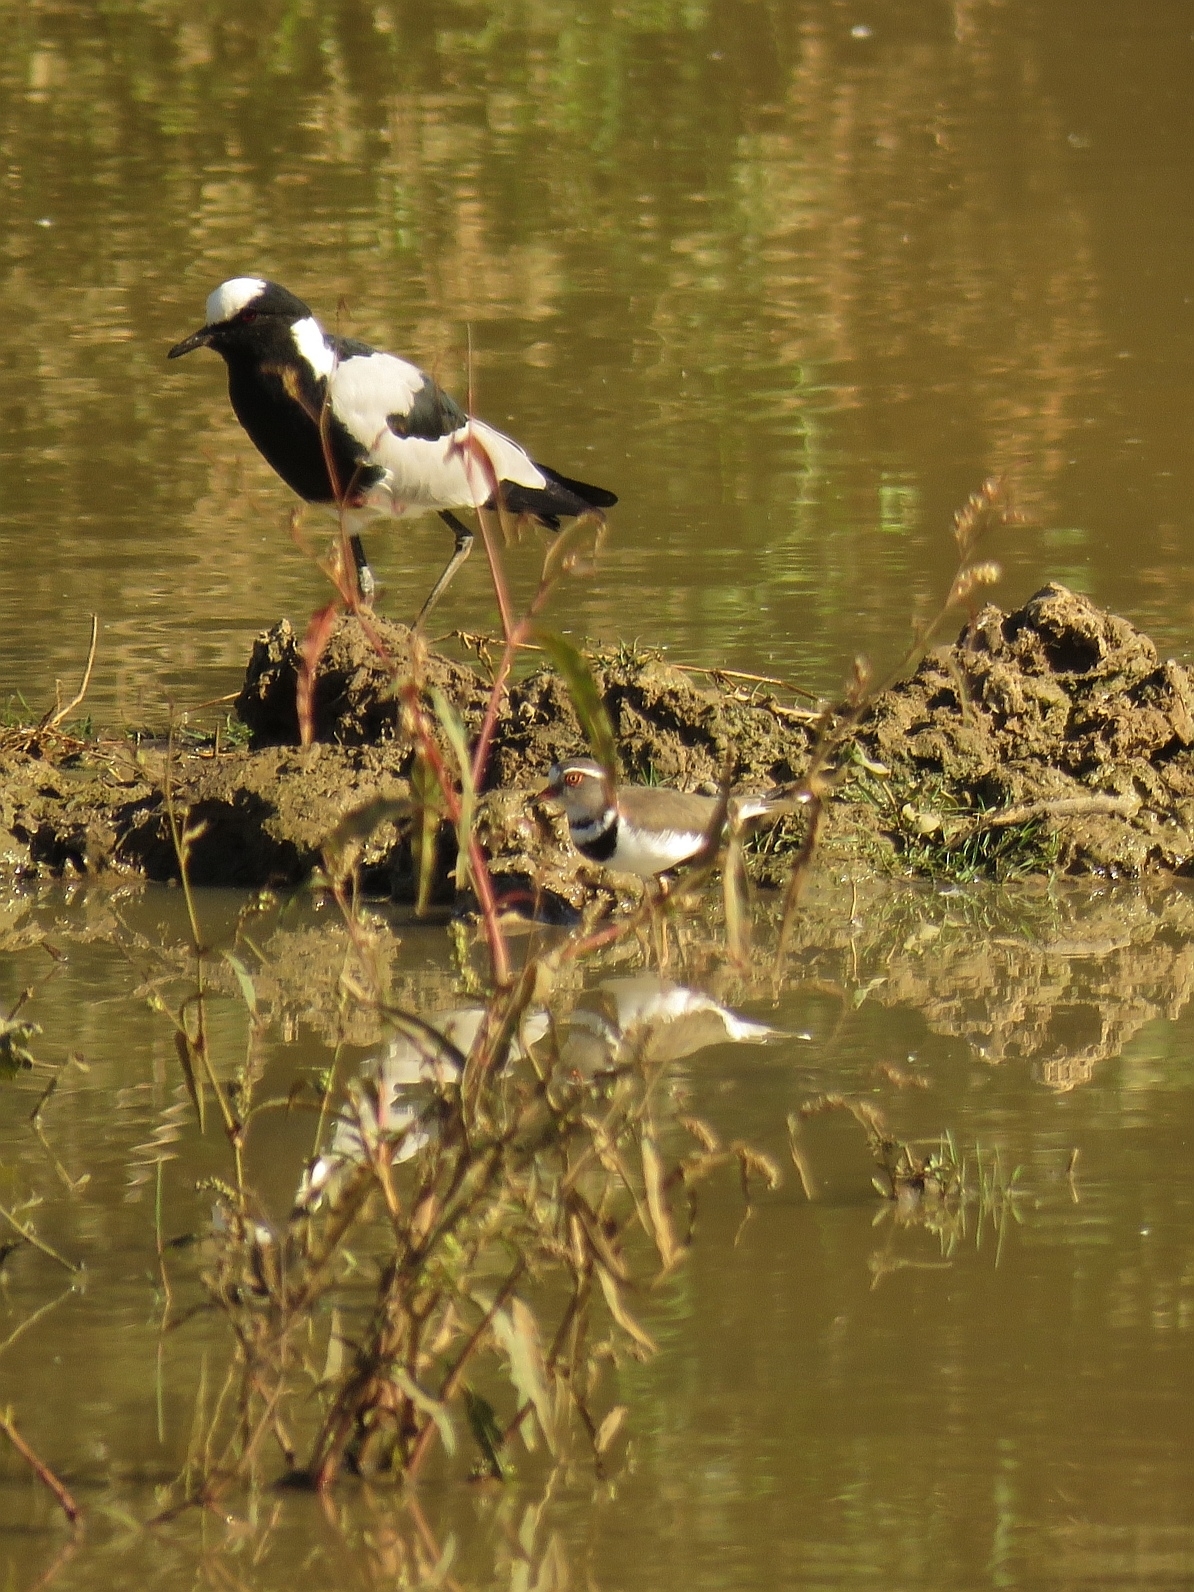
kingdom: Animalia
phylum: Chordata
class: Aves
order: Charadriiformes
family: Charadriidae
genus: Charadrius
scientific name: Charadrius tricollaris
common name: Three-banded plover
